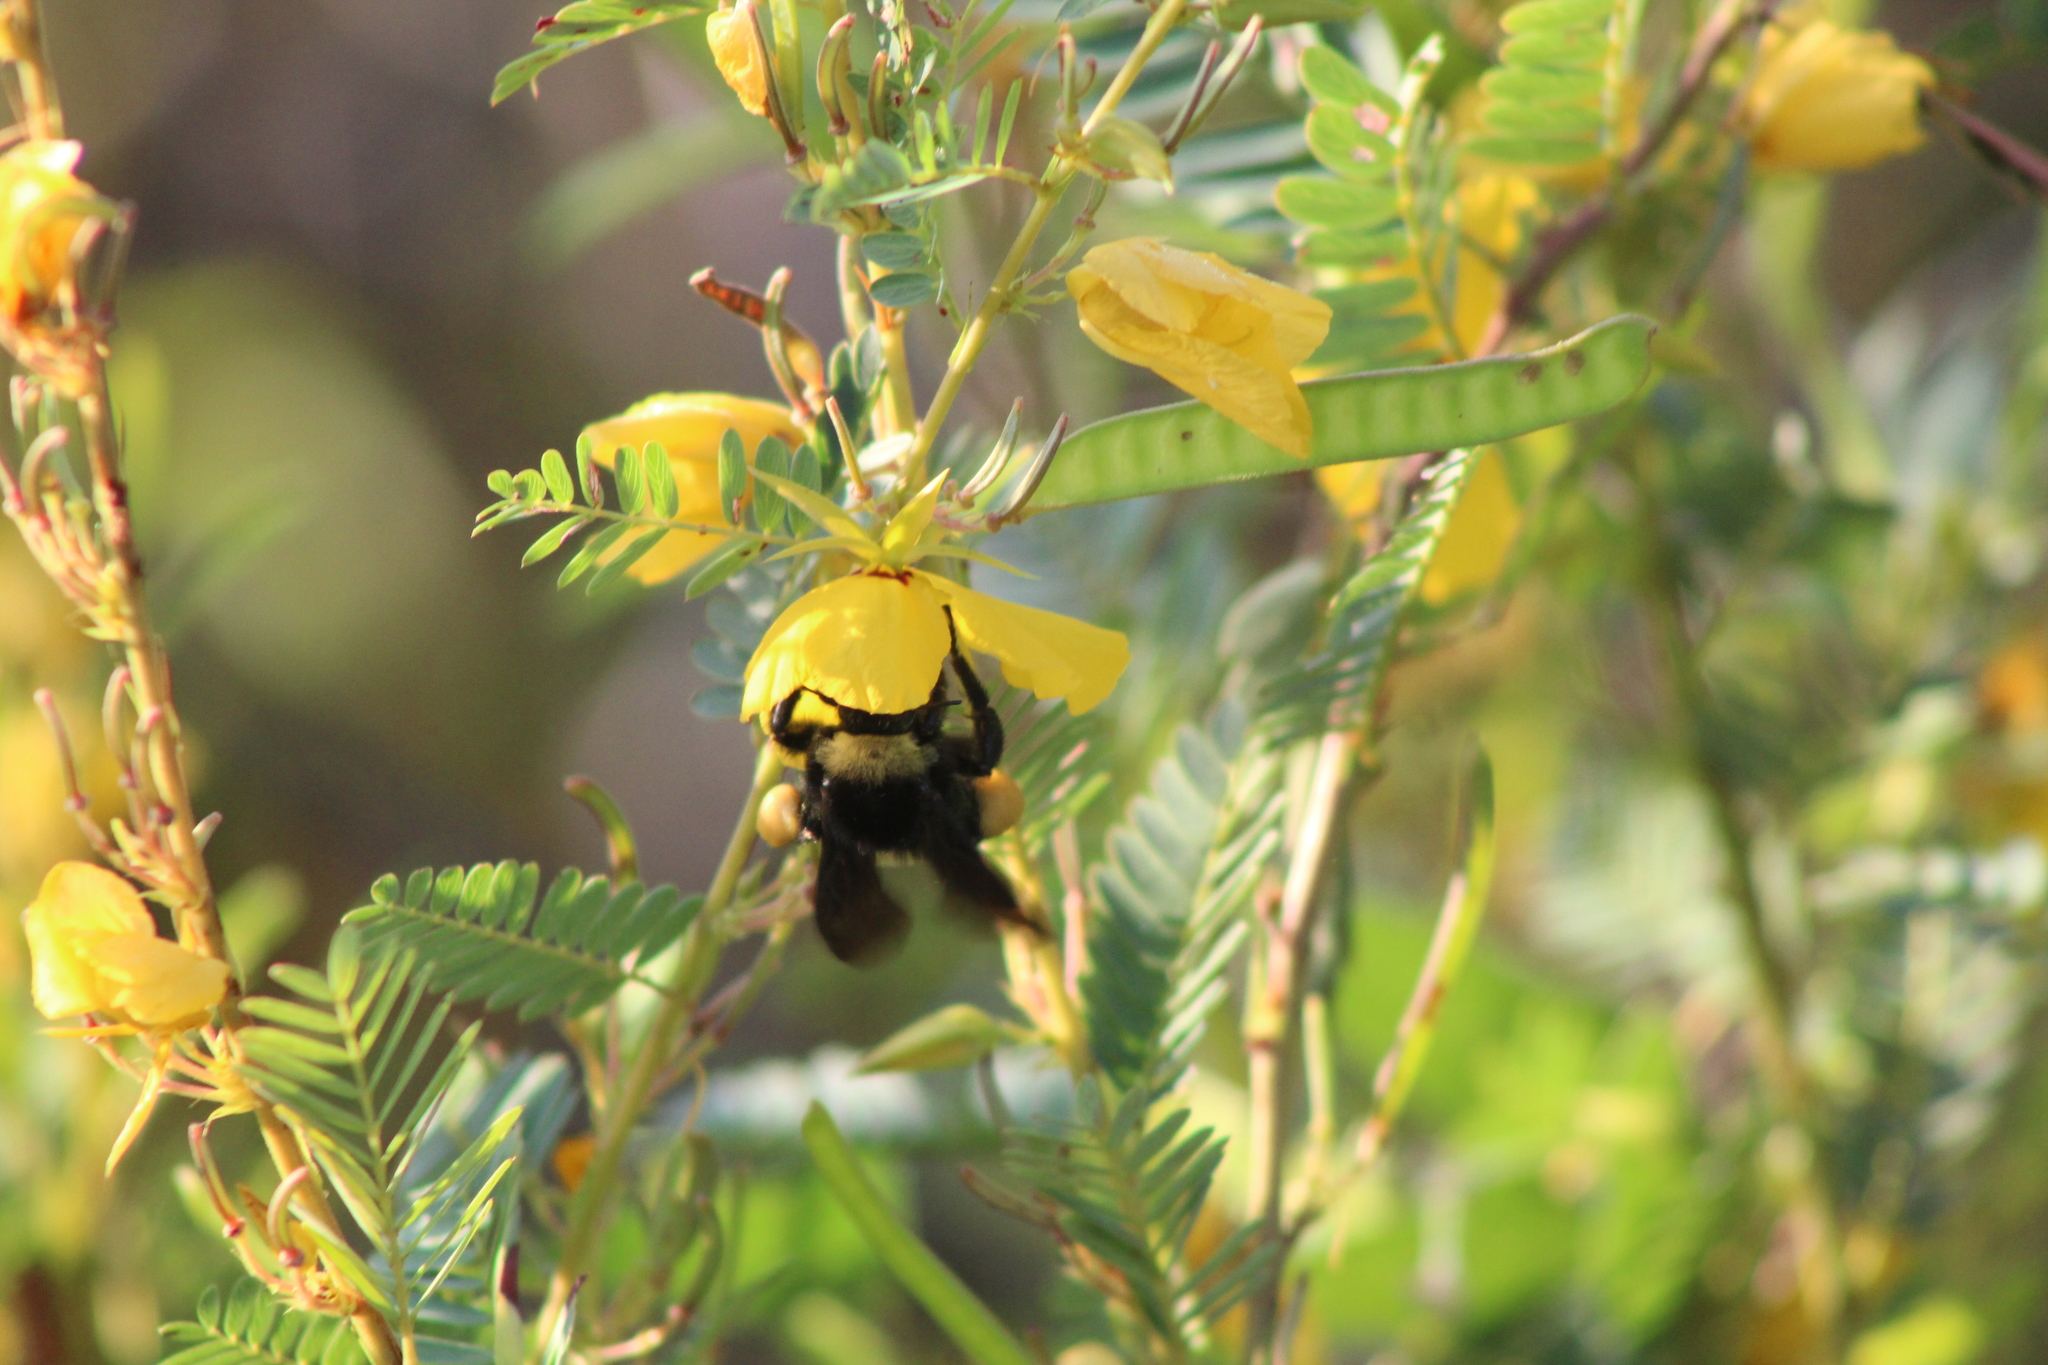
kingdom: Animalia
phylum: Arthropoda
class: Insecta
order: Hymenoptera
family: Apidae
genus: Bombus
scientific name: Bombus pensylvanicus
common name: Bumble bee
